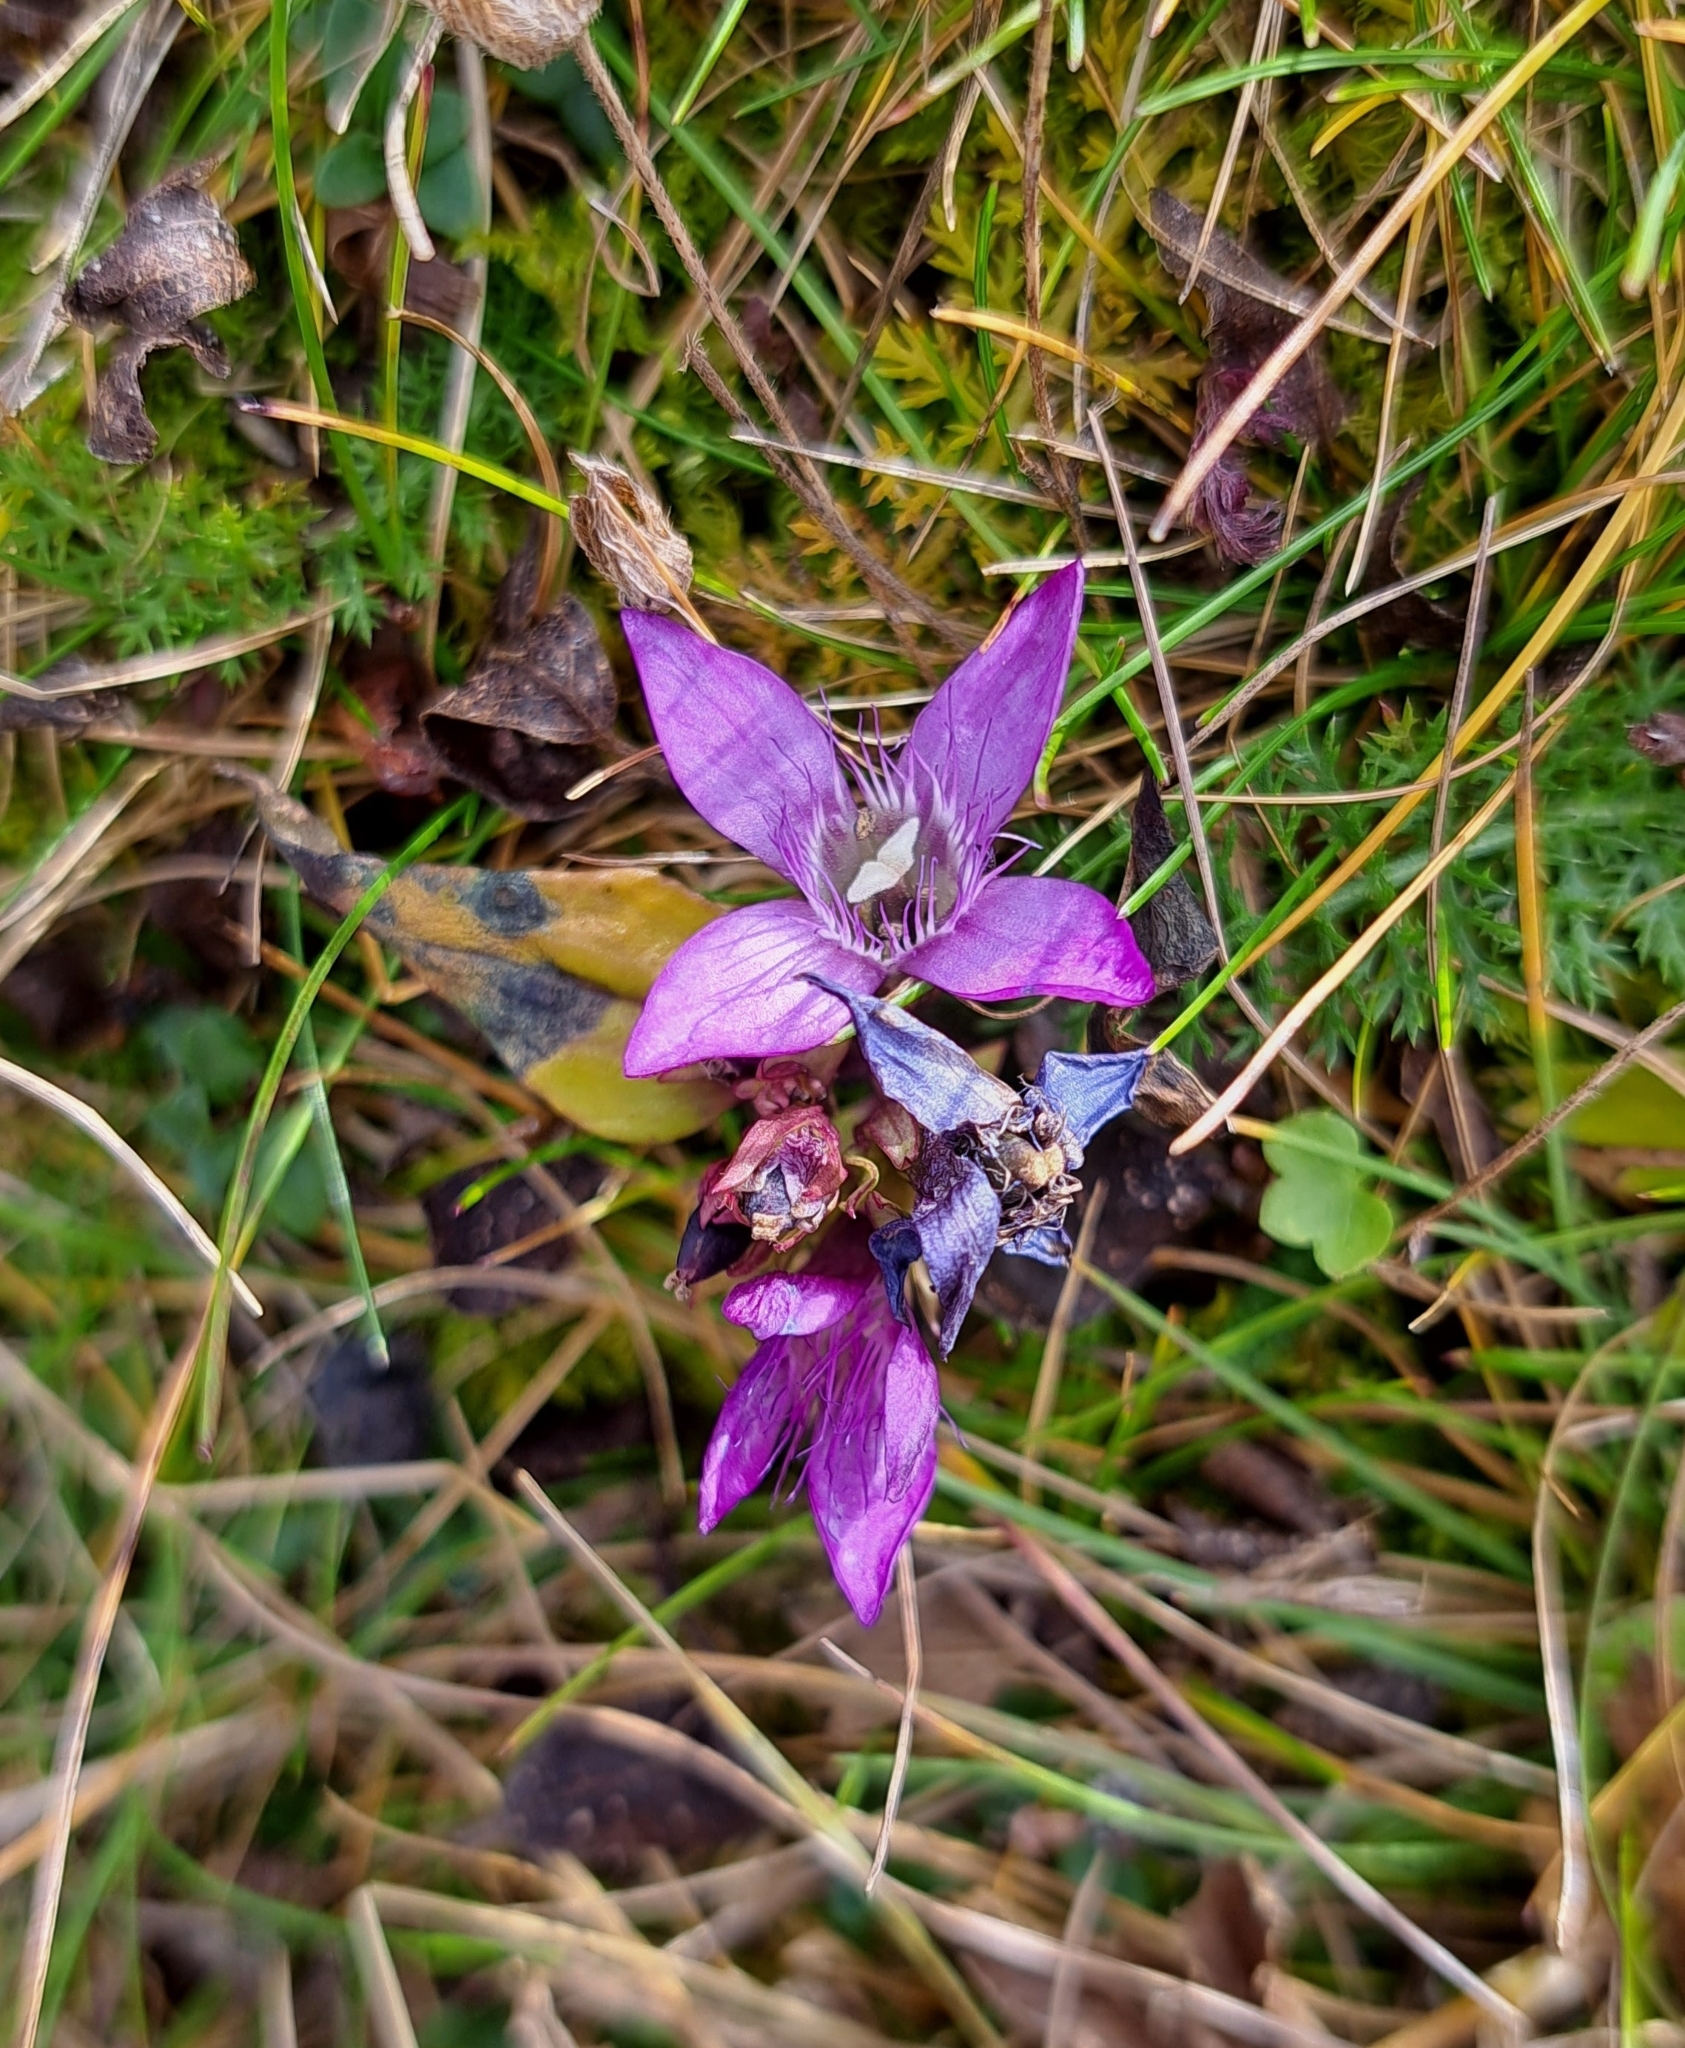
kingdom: Plantae
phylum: Tracheophyta
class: Magnoliopsida
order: Gentianales
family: Gentianaceae
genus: Gentianella
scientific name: Gentianella austriaca
